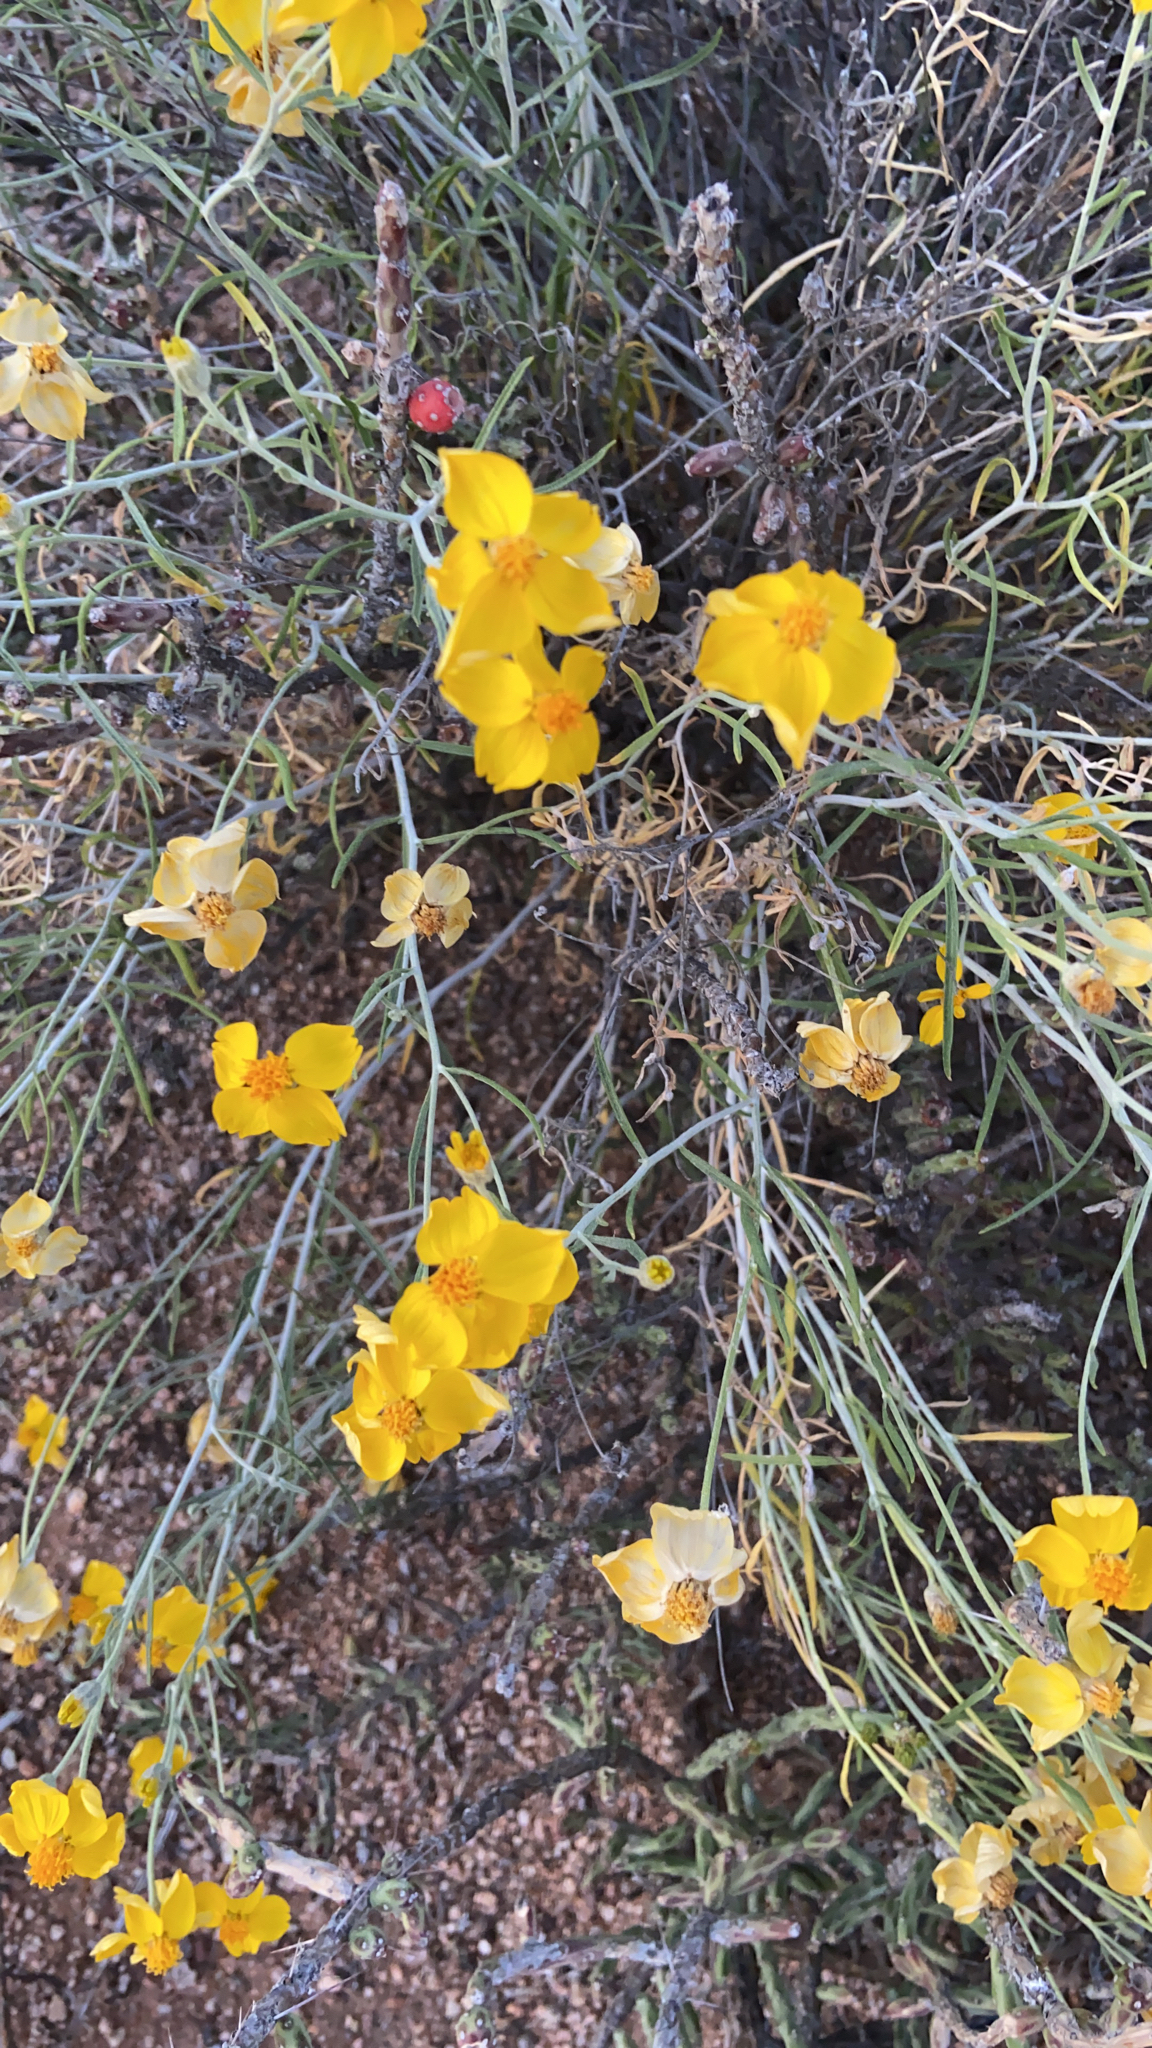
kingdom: Plantae
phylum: Tracheophyta
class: Magnoliopsida
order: Asterales
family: Asteraceae
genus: Psilostrophe
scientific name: Psilostrophe cooperi
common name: White-stem paper-flower
